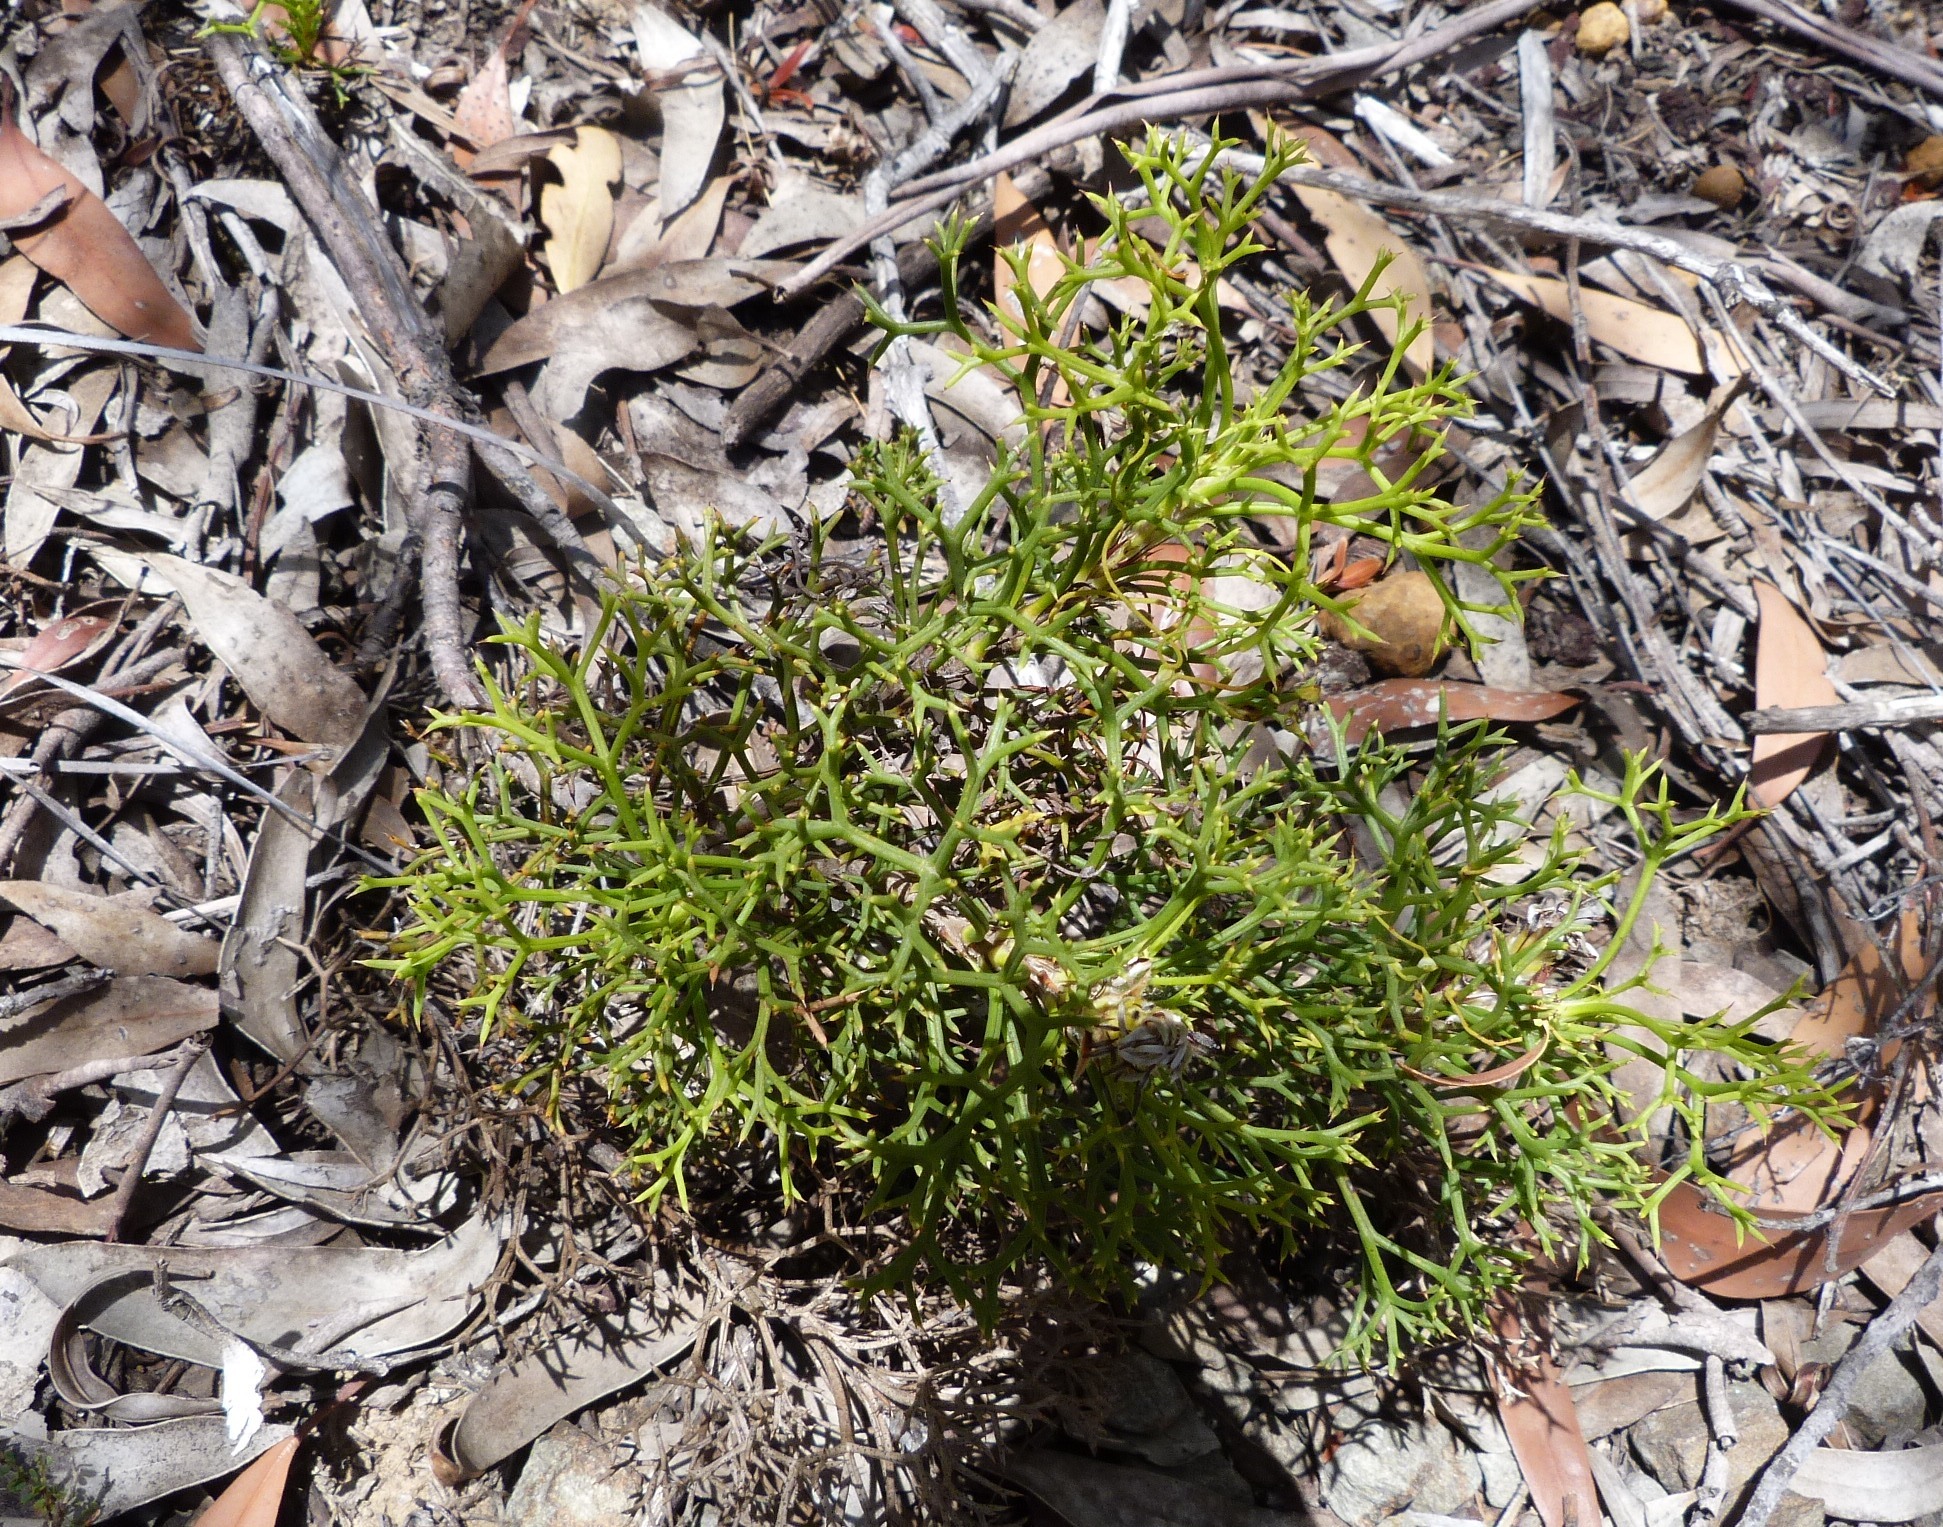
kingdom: Plantae
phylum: Tracheophyta
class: Magnoliopsida
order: Proteales
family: Proteaceae
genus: Isopogon
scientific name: Isopogon ceratophyllus
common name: Horny cone-bush
